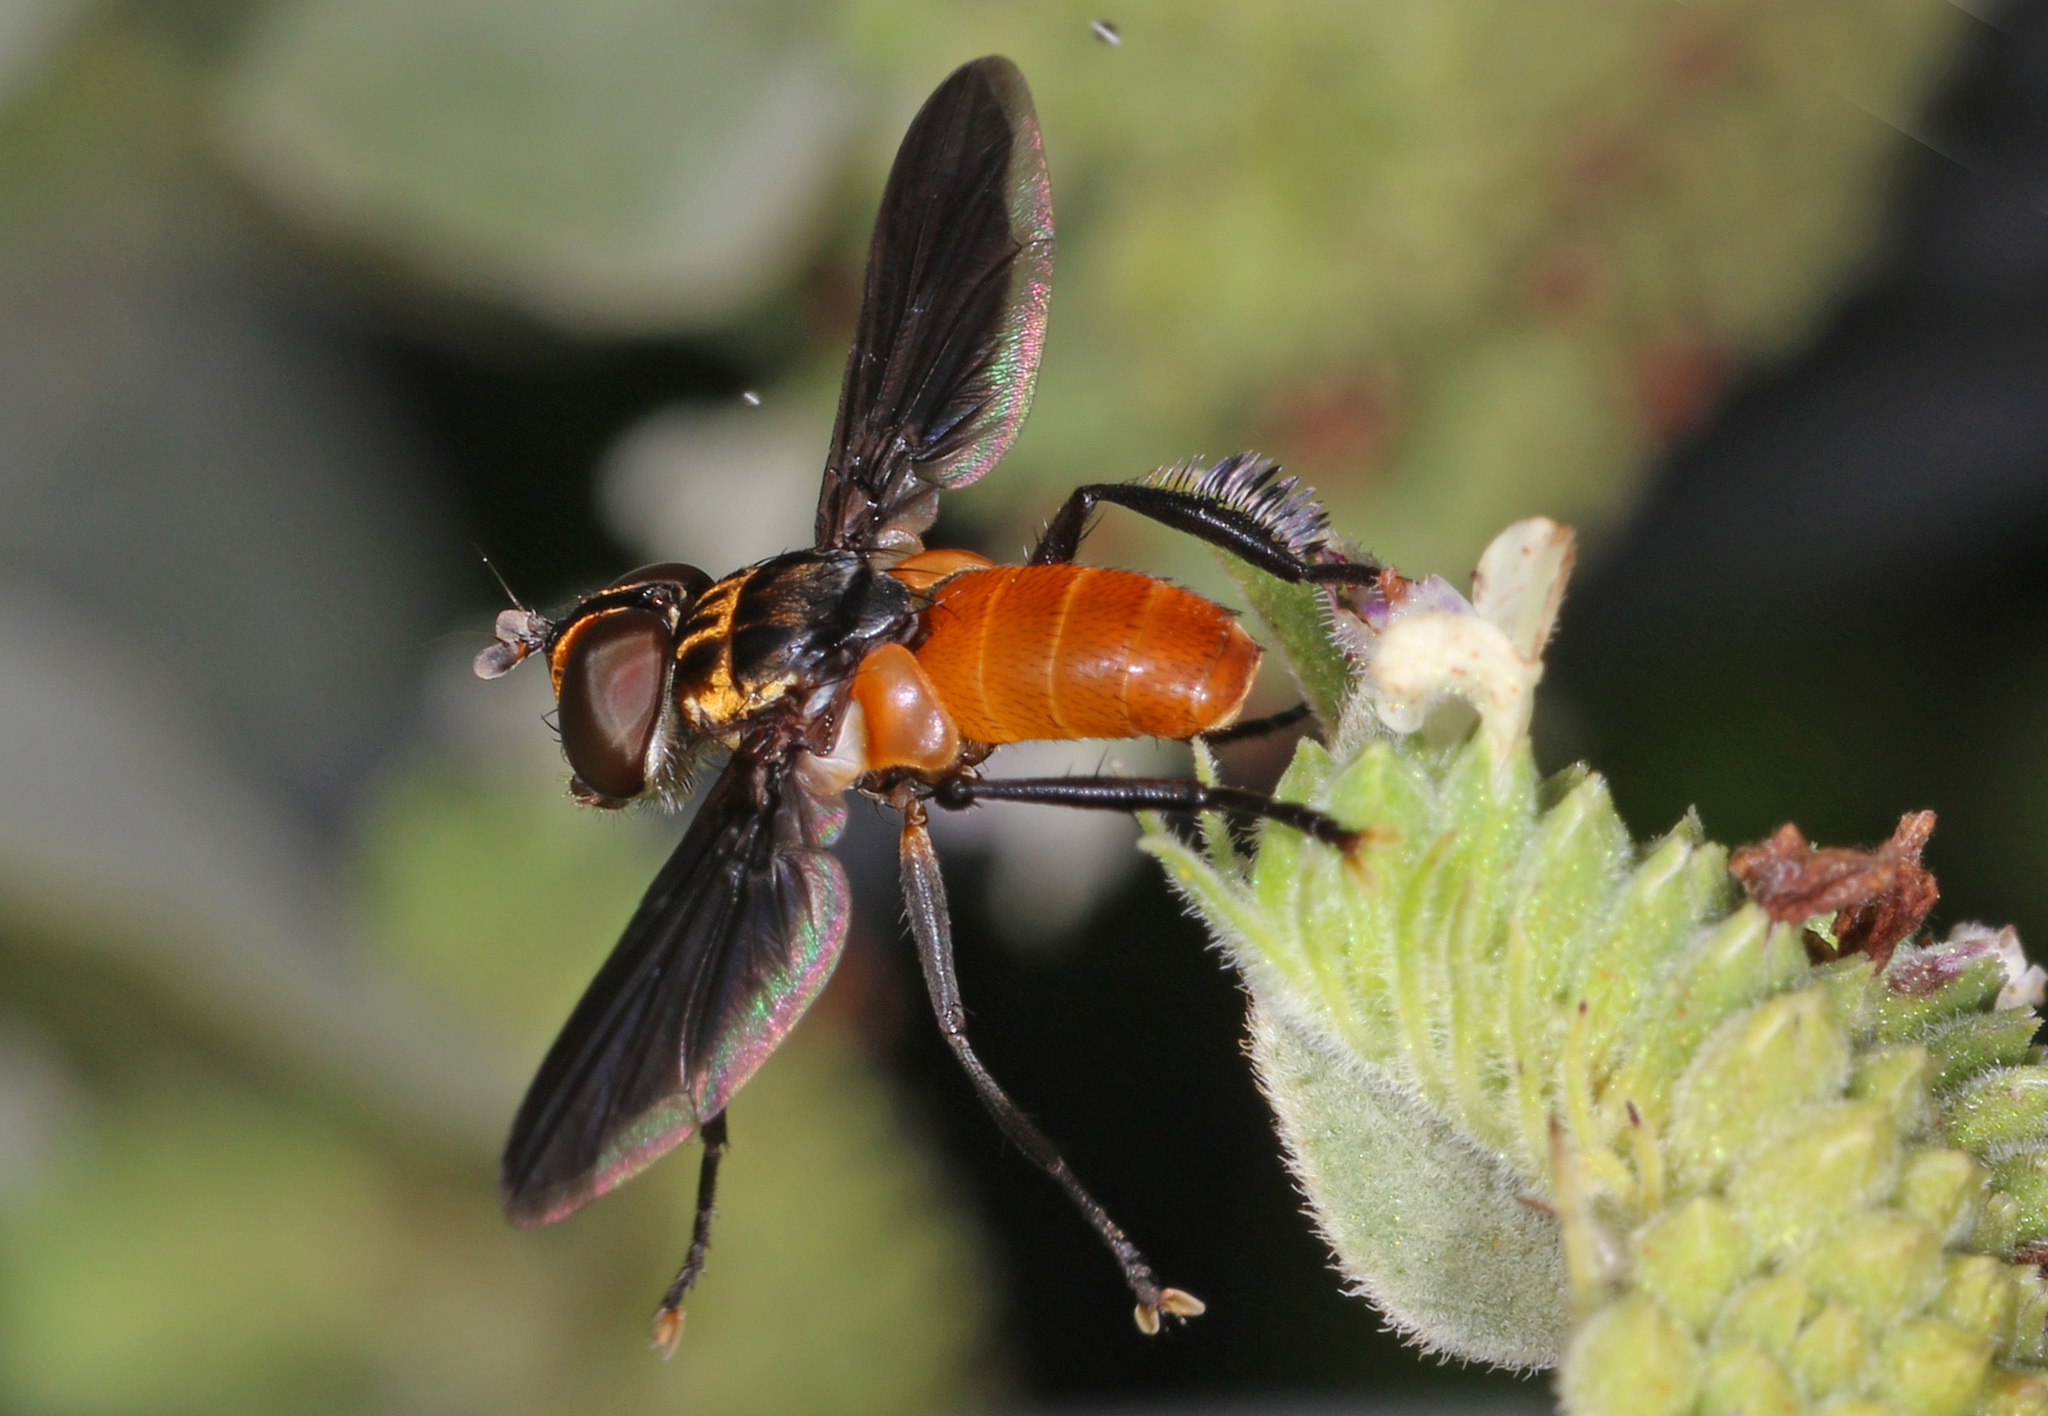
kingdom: Animalia
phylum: Arthropoda
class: Insecta
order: Diptera
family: Tachinidae
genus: Trichopoda
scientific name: Trichopoda pennipes
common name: Tachinid fly
